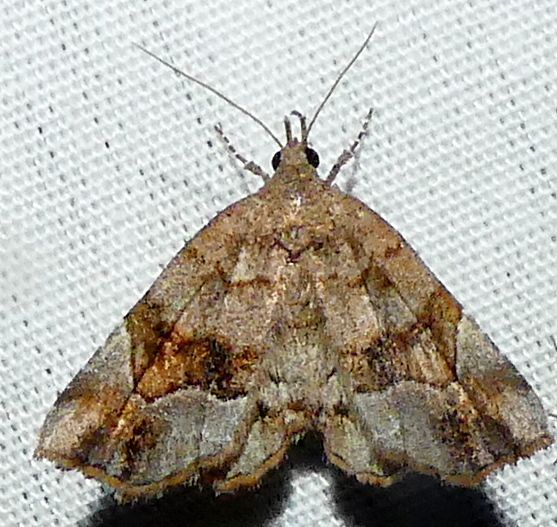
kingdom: Animalia
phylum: Arthropoda
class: Insecta
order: Lepidoptera
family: Erebidae
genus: Pangrapta
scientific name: Pangrapta decoralis
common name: Decorated owlet
